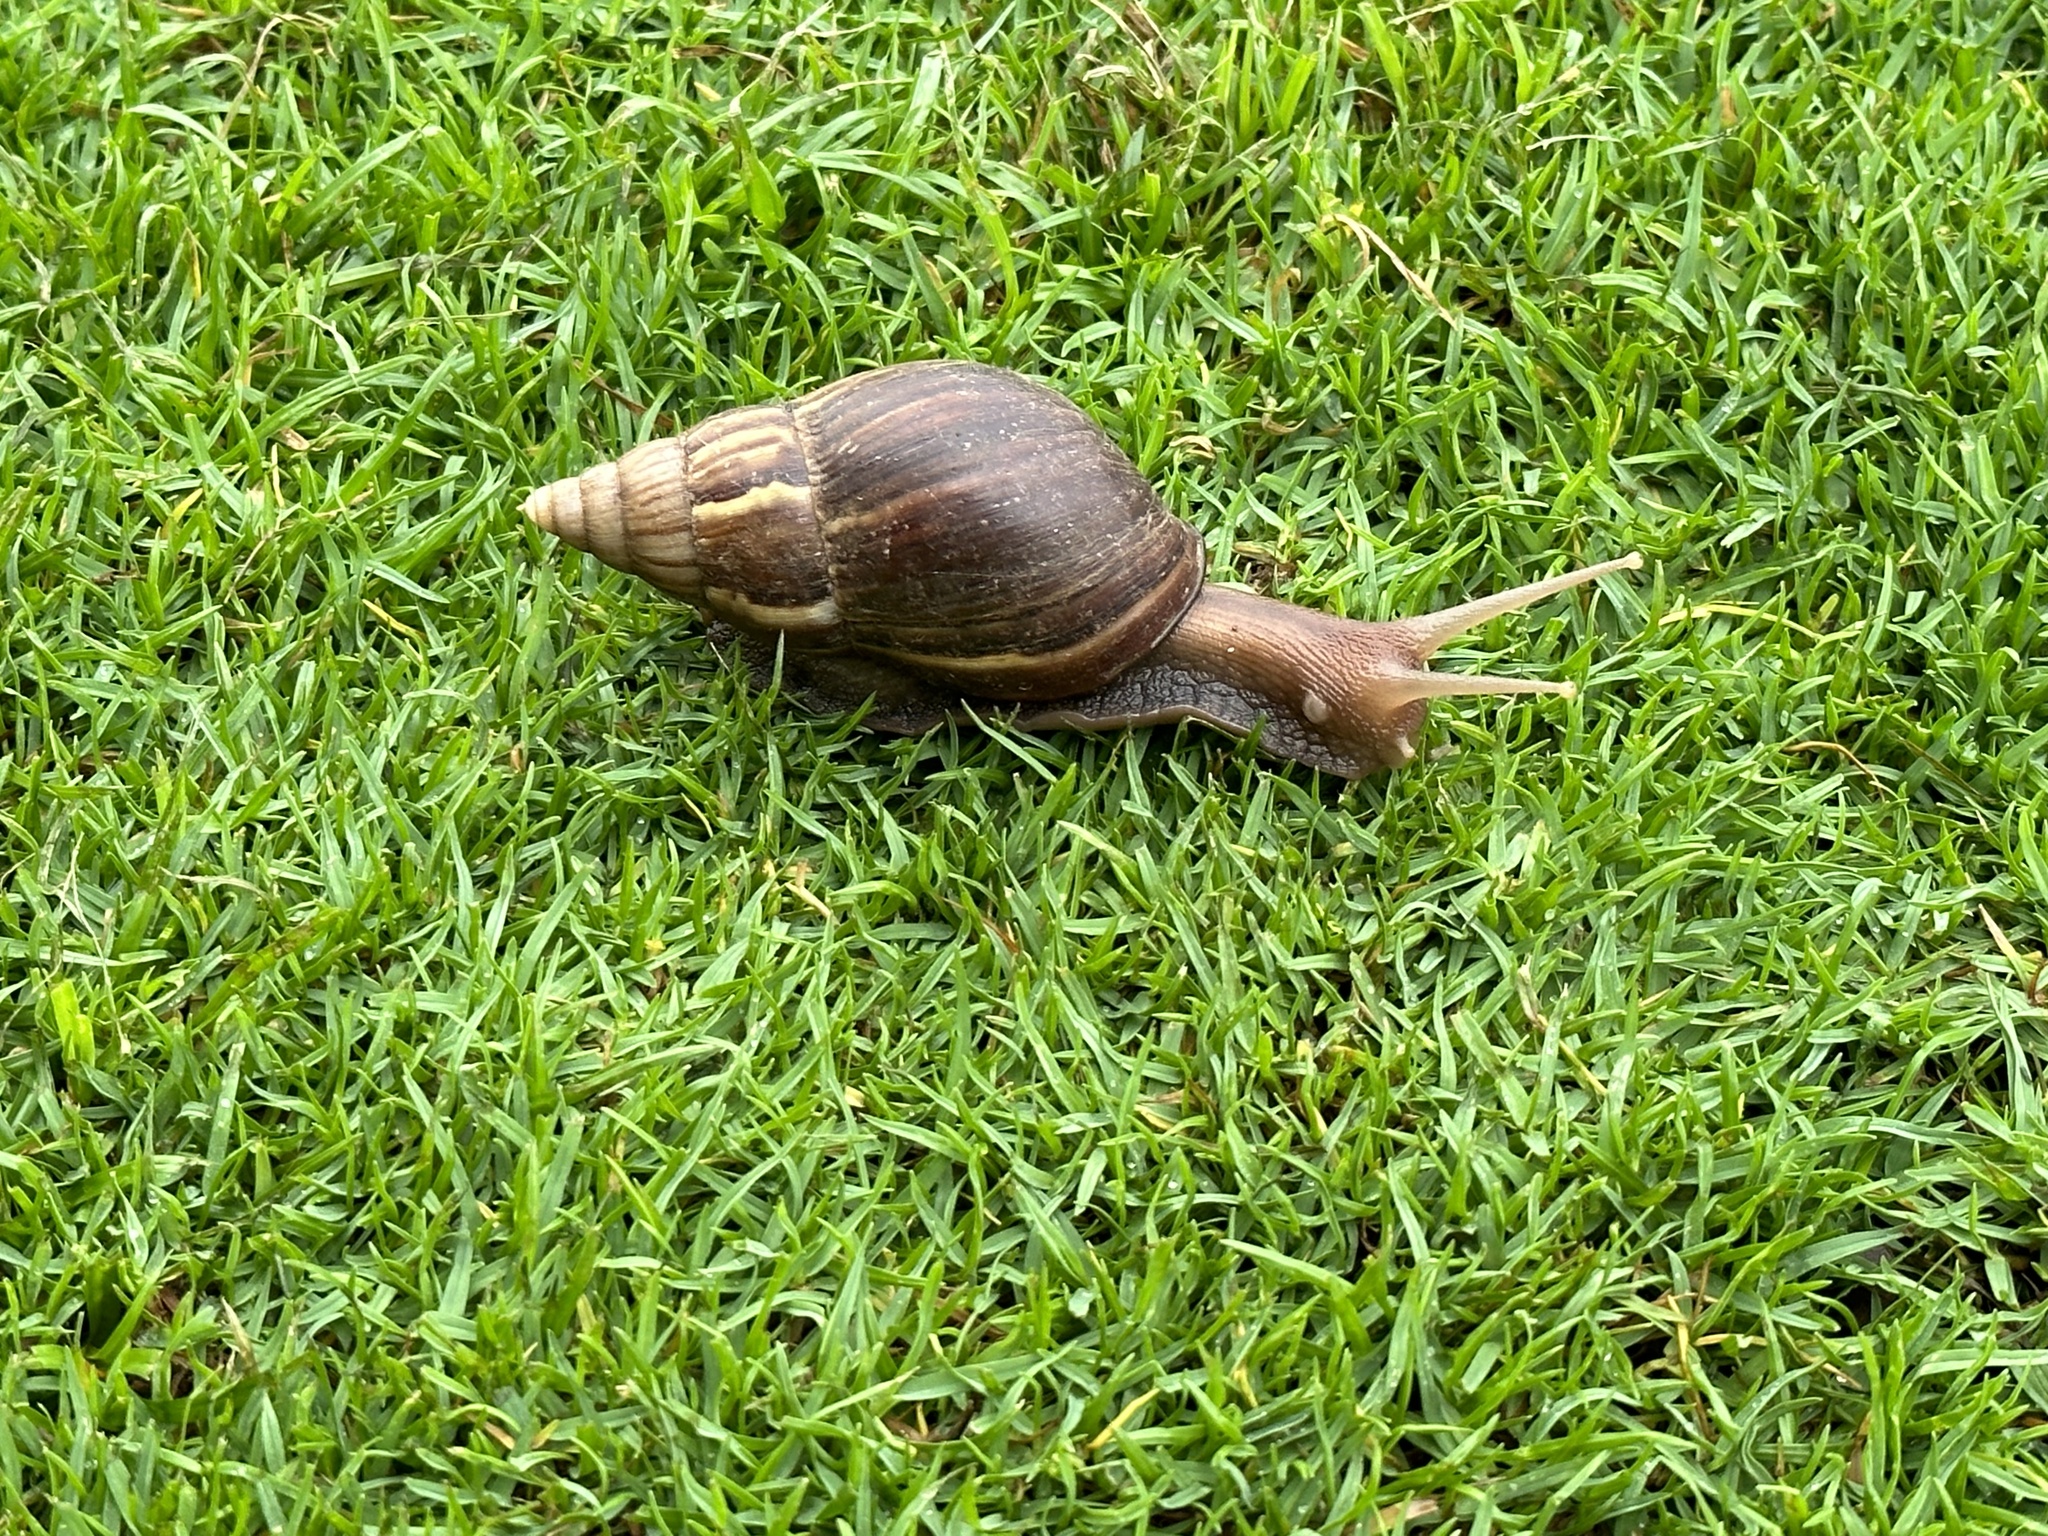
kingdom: Animalia
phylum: Mollusca
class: Gastropoda
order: Stylommatophora
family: Achatinidae
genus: Lissachatina
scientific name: Lissachatina fulica
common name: Giant african snail
